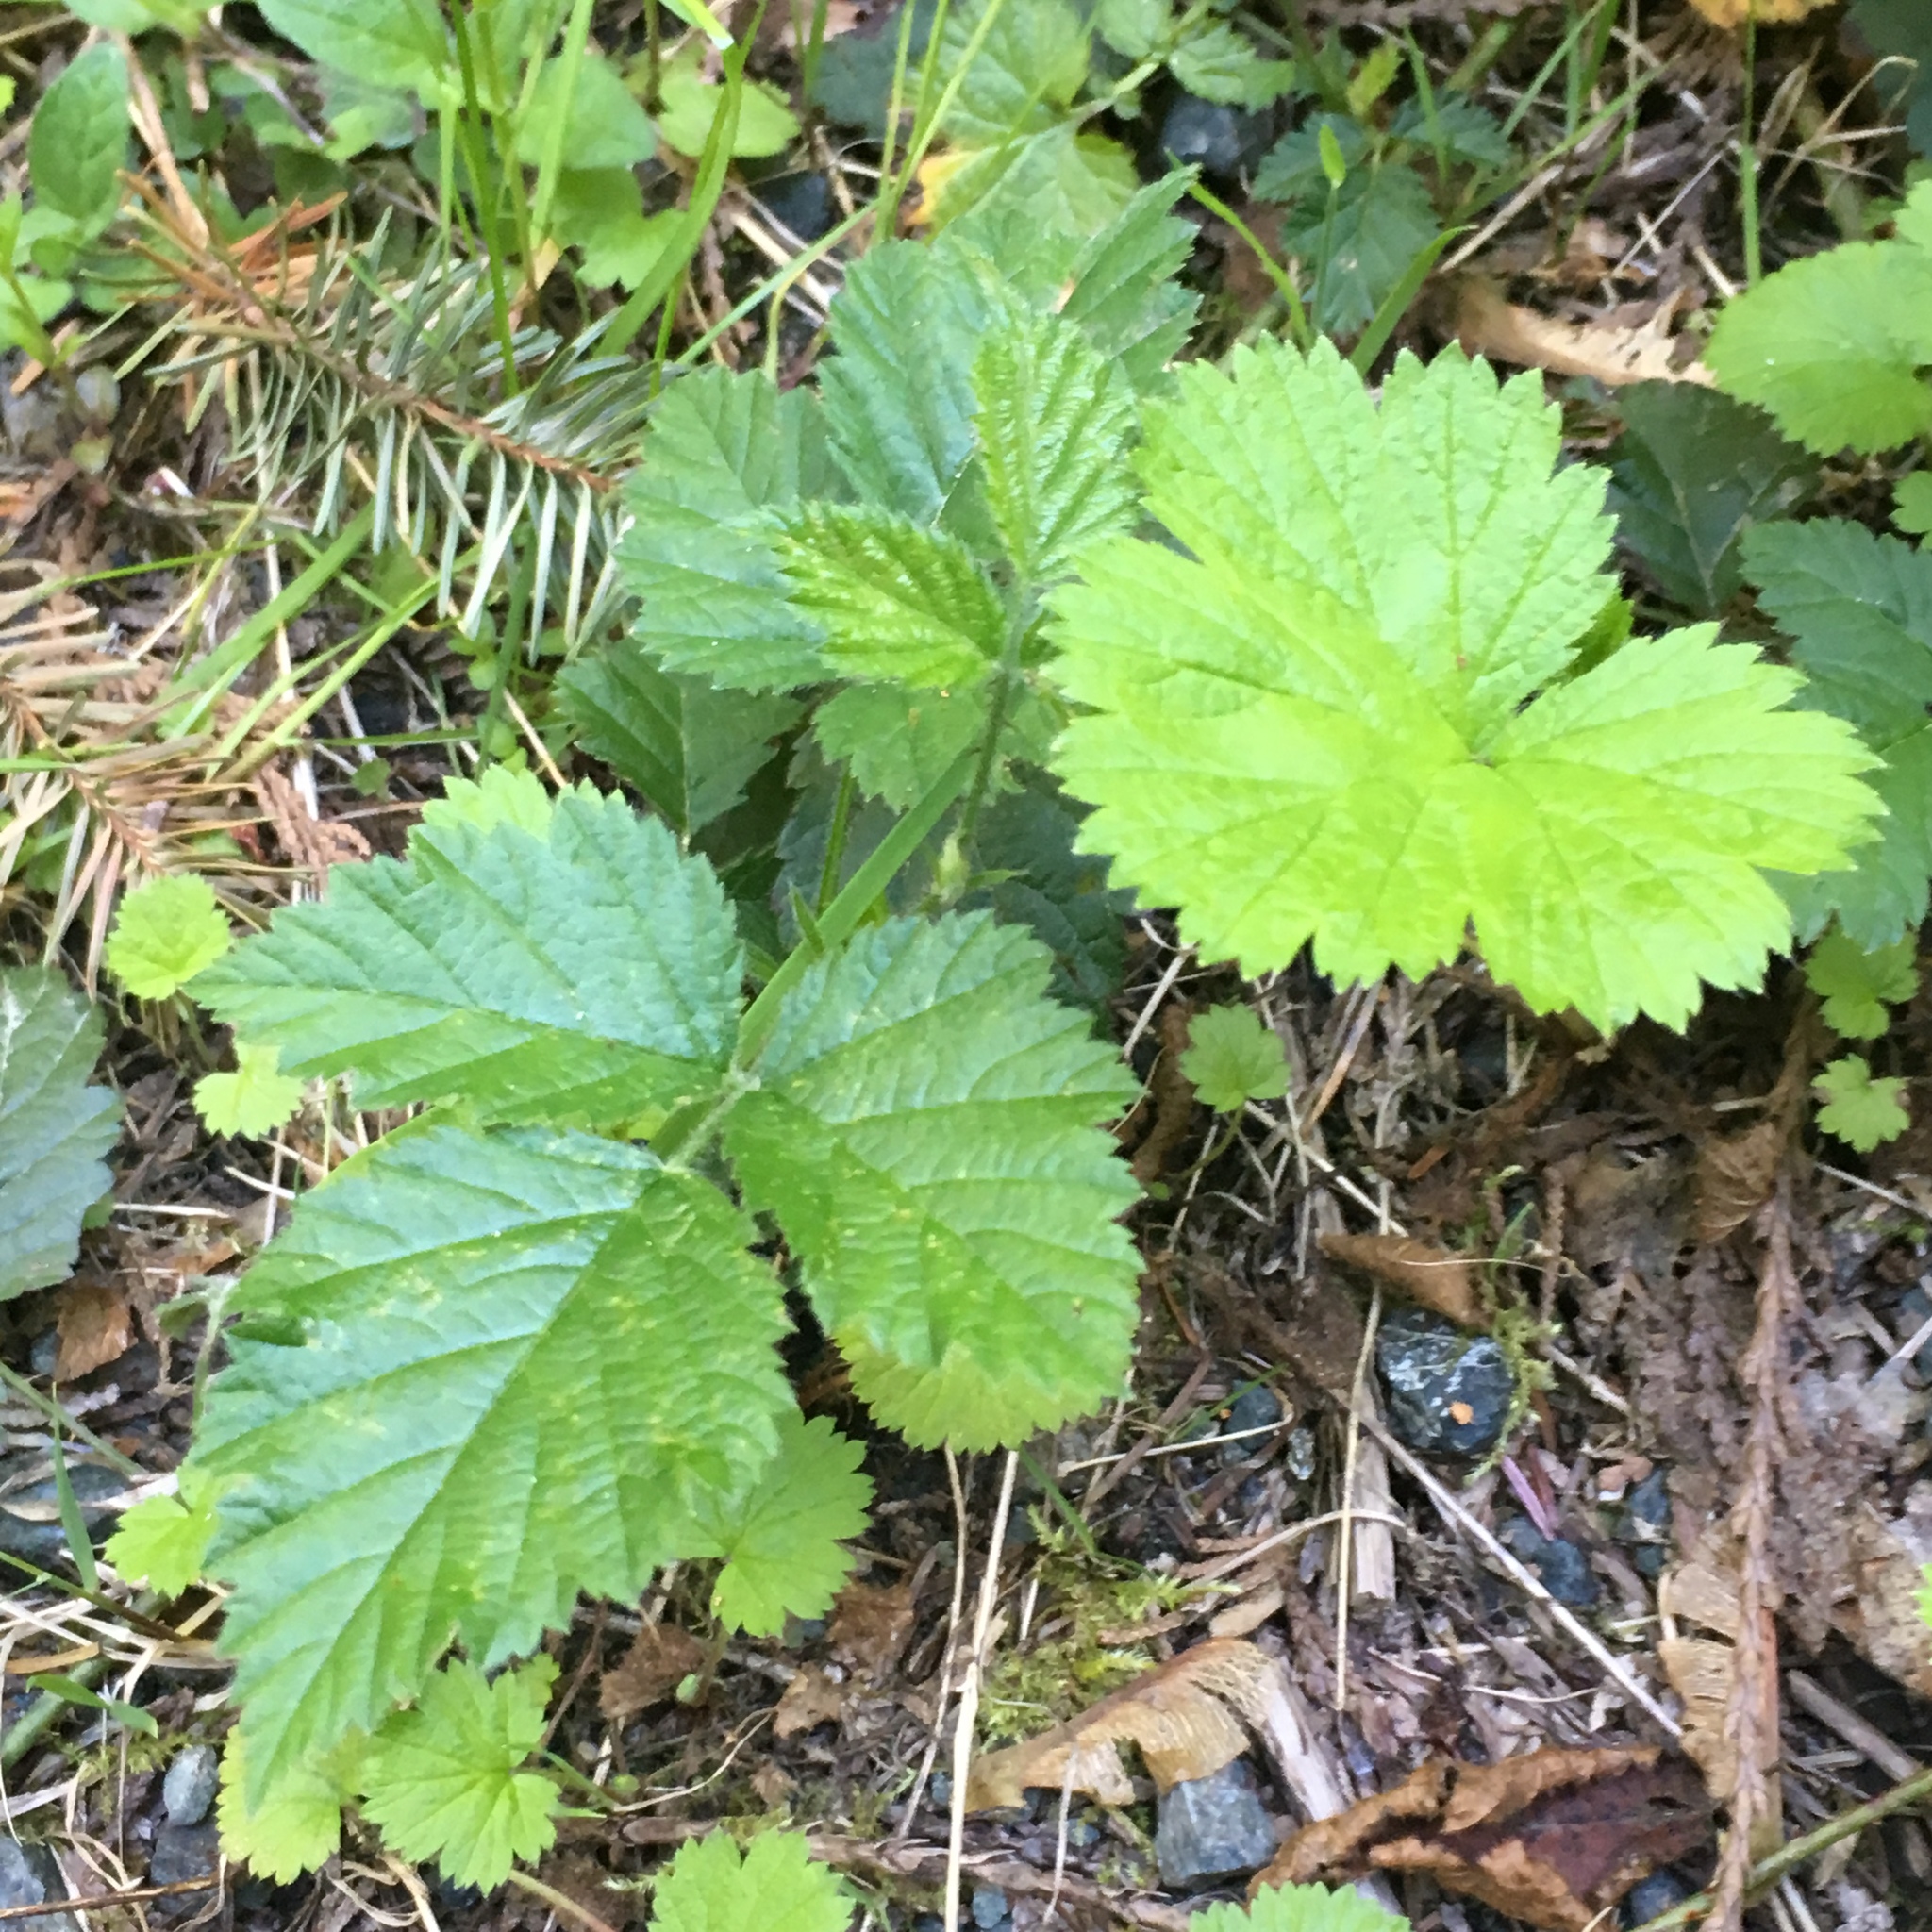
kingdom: Plantae
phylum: Tracheophyta
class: Magnoliopsida
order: Rosales
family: Rosaceae
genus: Rubus
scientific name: Rubus ursinus
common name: Pacific blackberry
